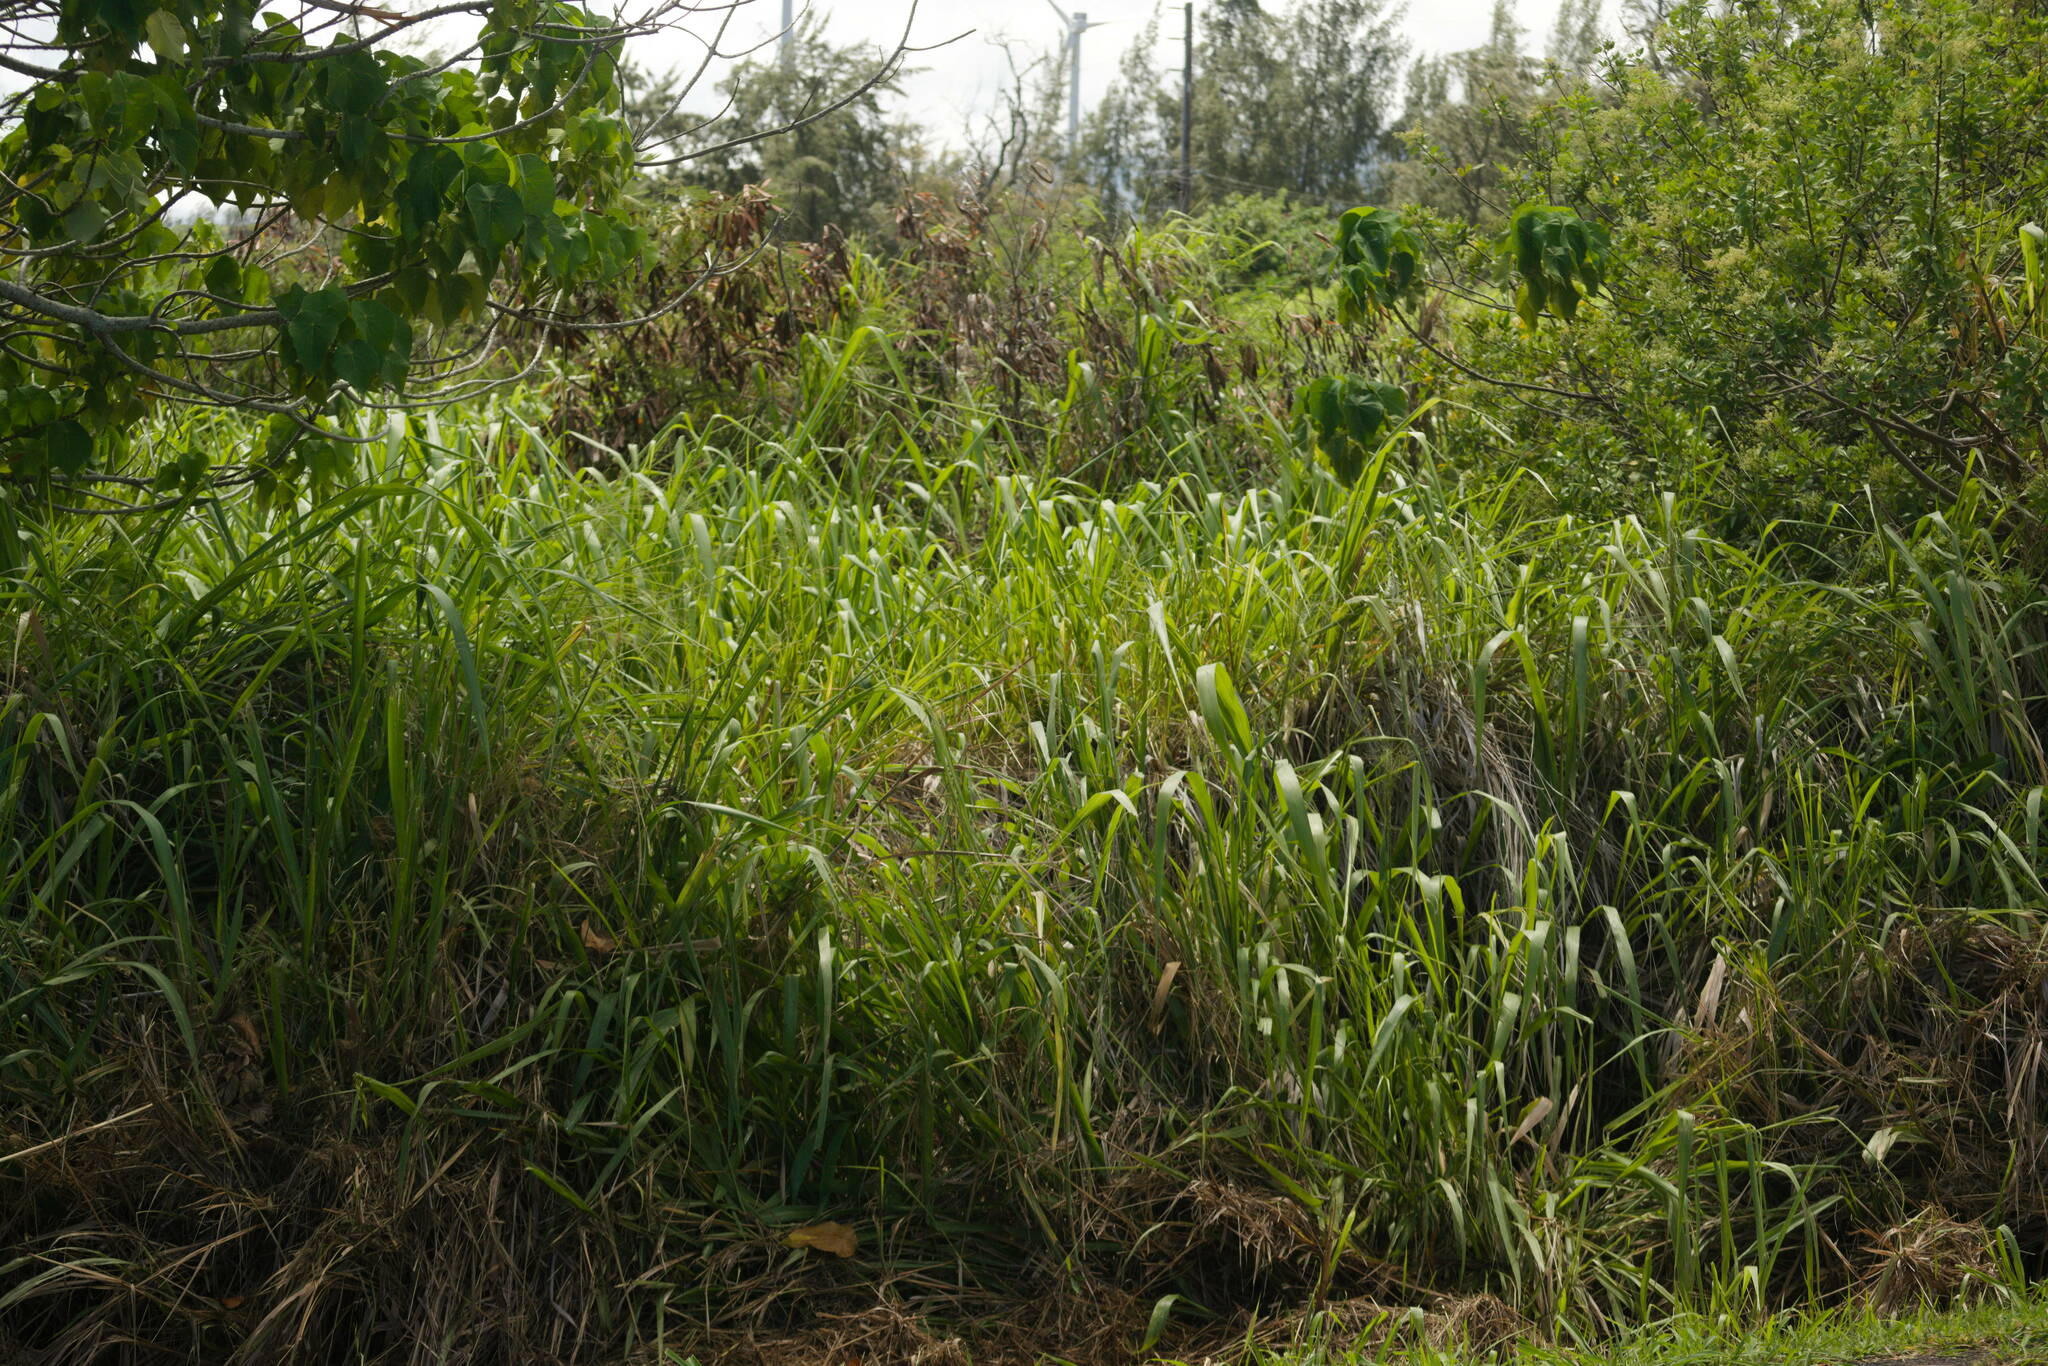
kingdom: Plantae
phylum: Tracheophyta
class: Liliopsida
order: Poales
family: Poaceae
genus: Megathyrsus
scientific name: Megathyrsus maximus
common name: Guineagrass
